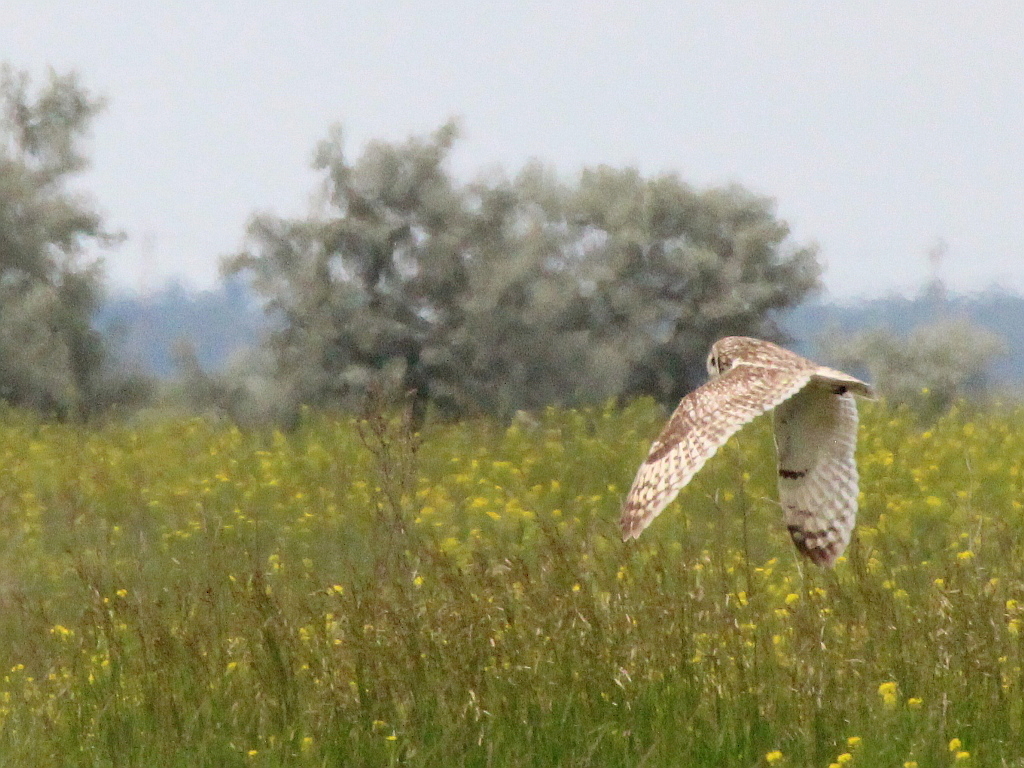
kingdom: Animalia
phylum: Chordata
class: Aves
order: Strigiformes
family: Strigidae
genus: Asio
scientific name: Asio flammeus
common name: Short-eared owl
